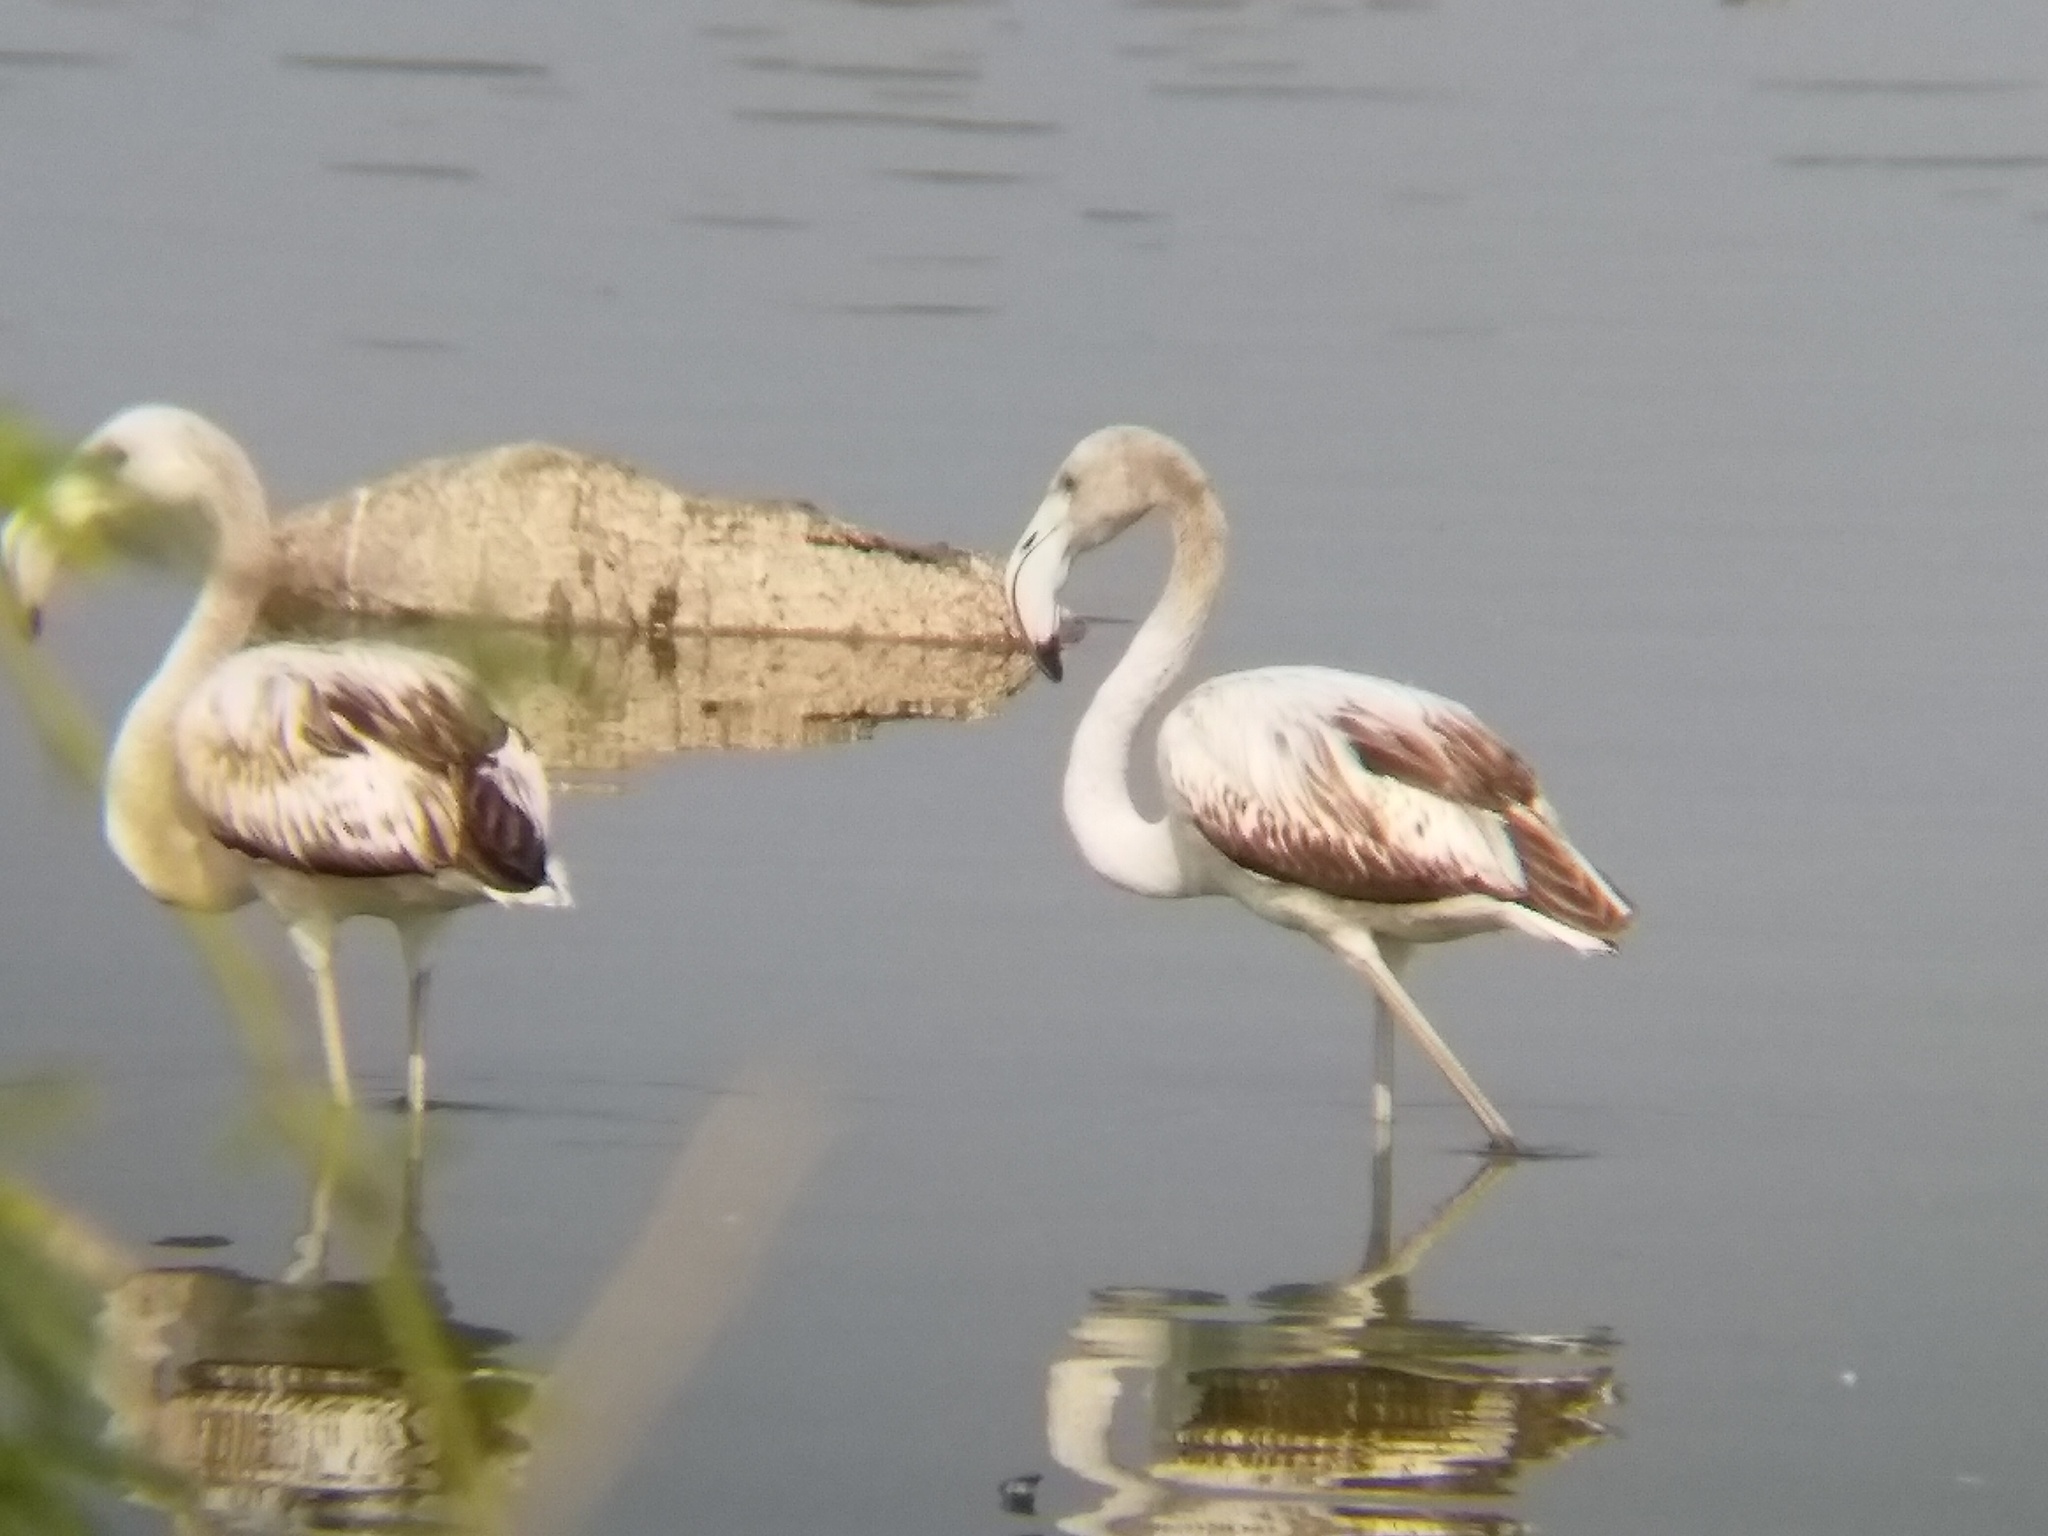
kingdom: Animalia
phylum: Chordata
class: Aves
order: Phoenicopteriformes
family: Phoenicopteridae
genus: Phoenicopterus
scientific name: Phoenicopterus roseus
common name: Greater flamingo
